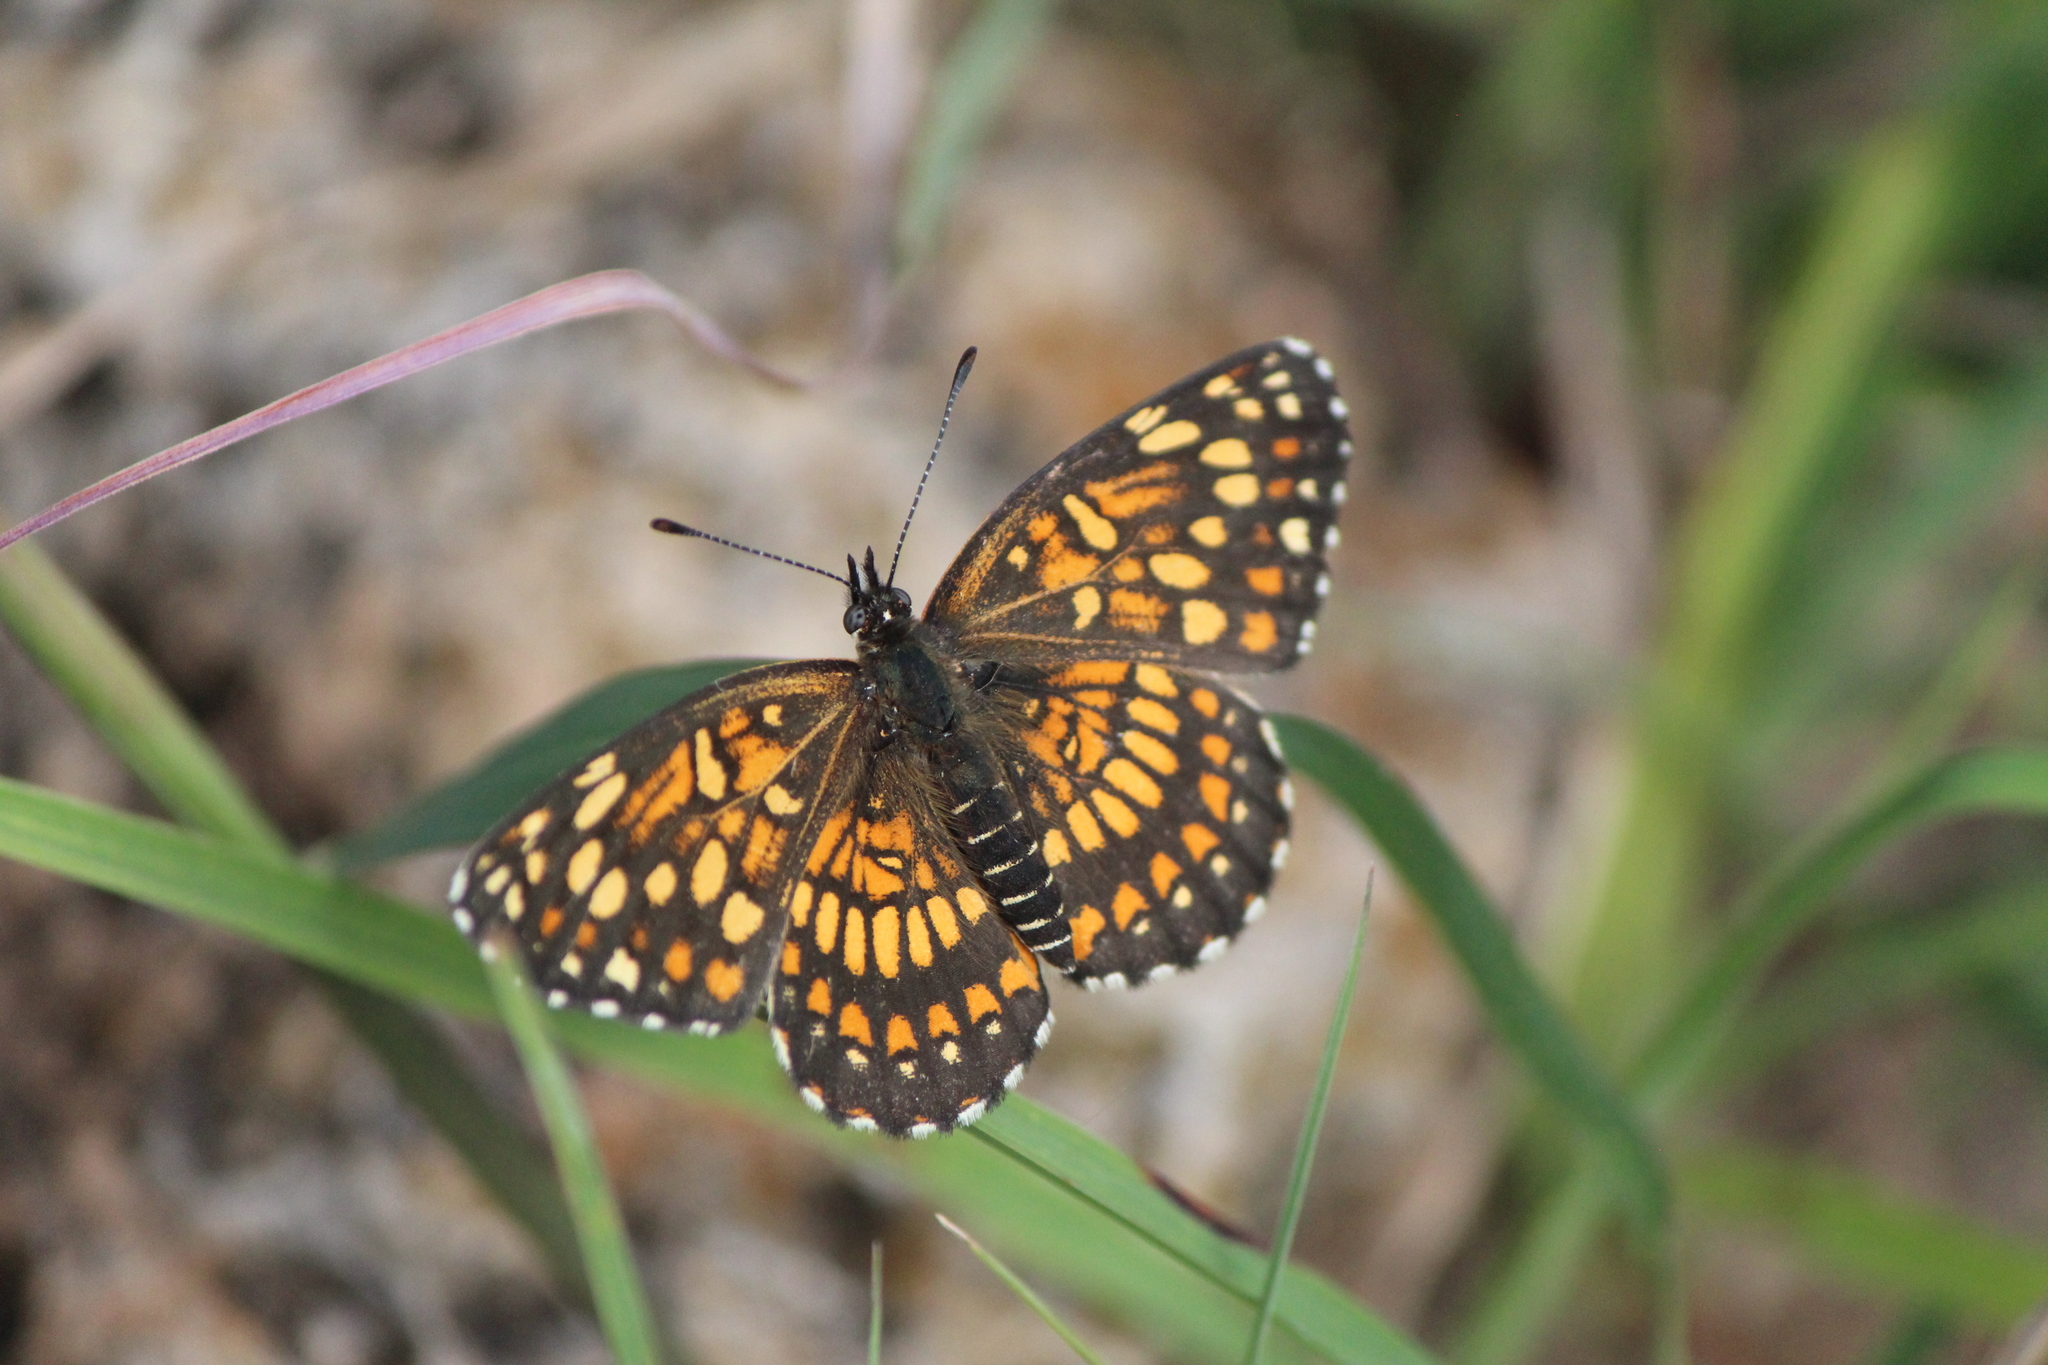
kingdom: Animalia
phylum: Arthropoda
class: Insecta
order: Lepidoptera
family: Nymphalidae
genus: Thessalia
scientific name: Thessalia theona
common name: Nymphalid moth
